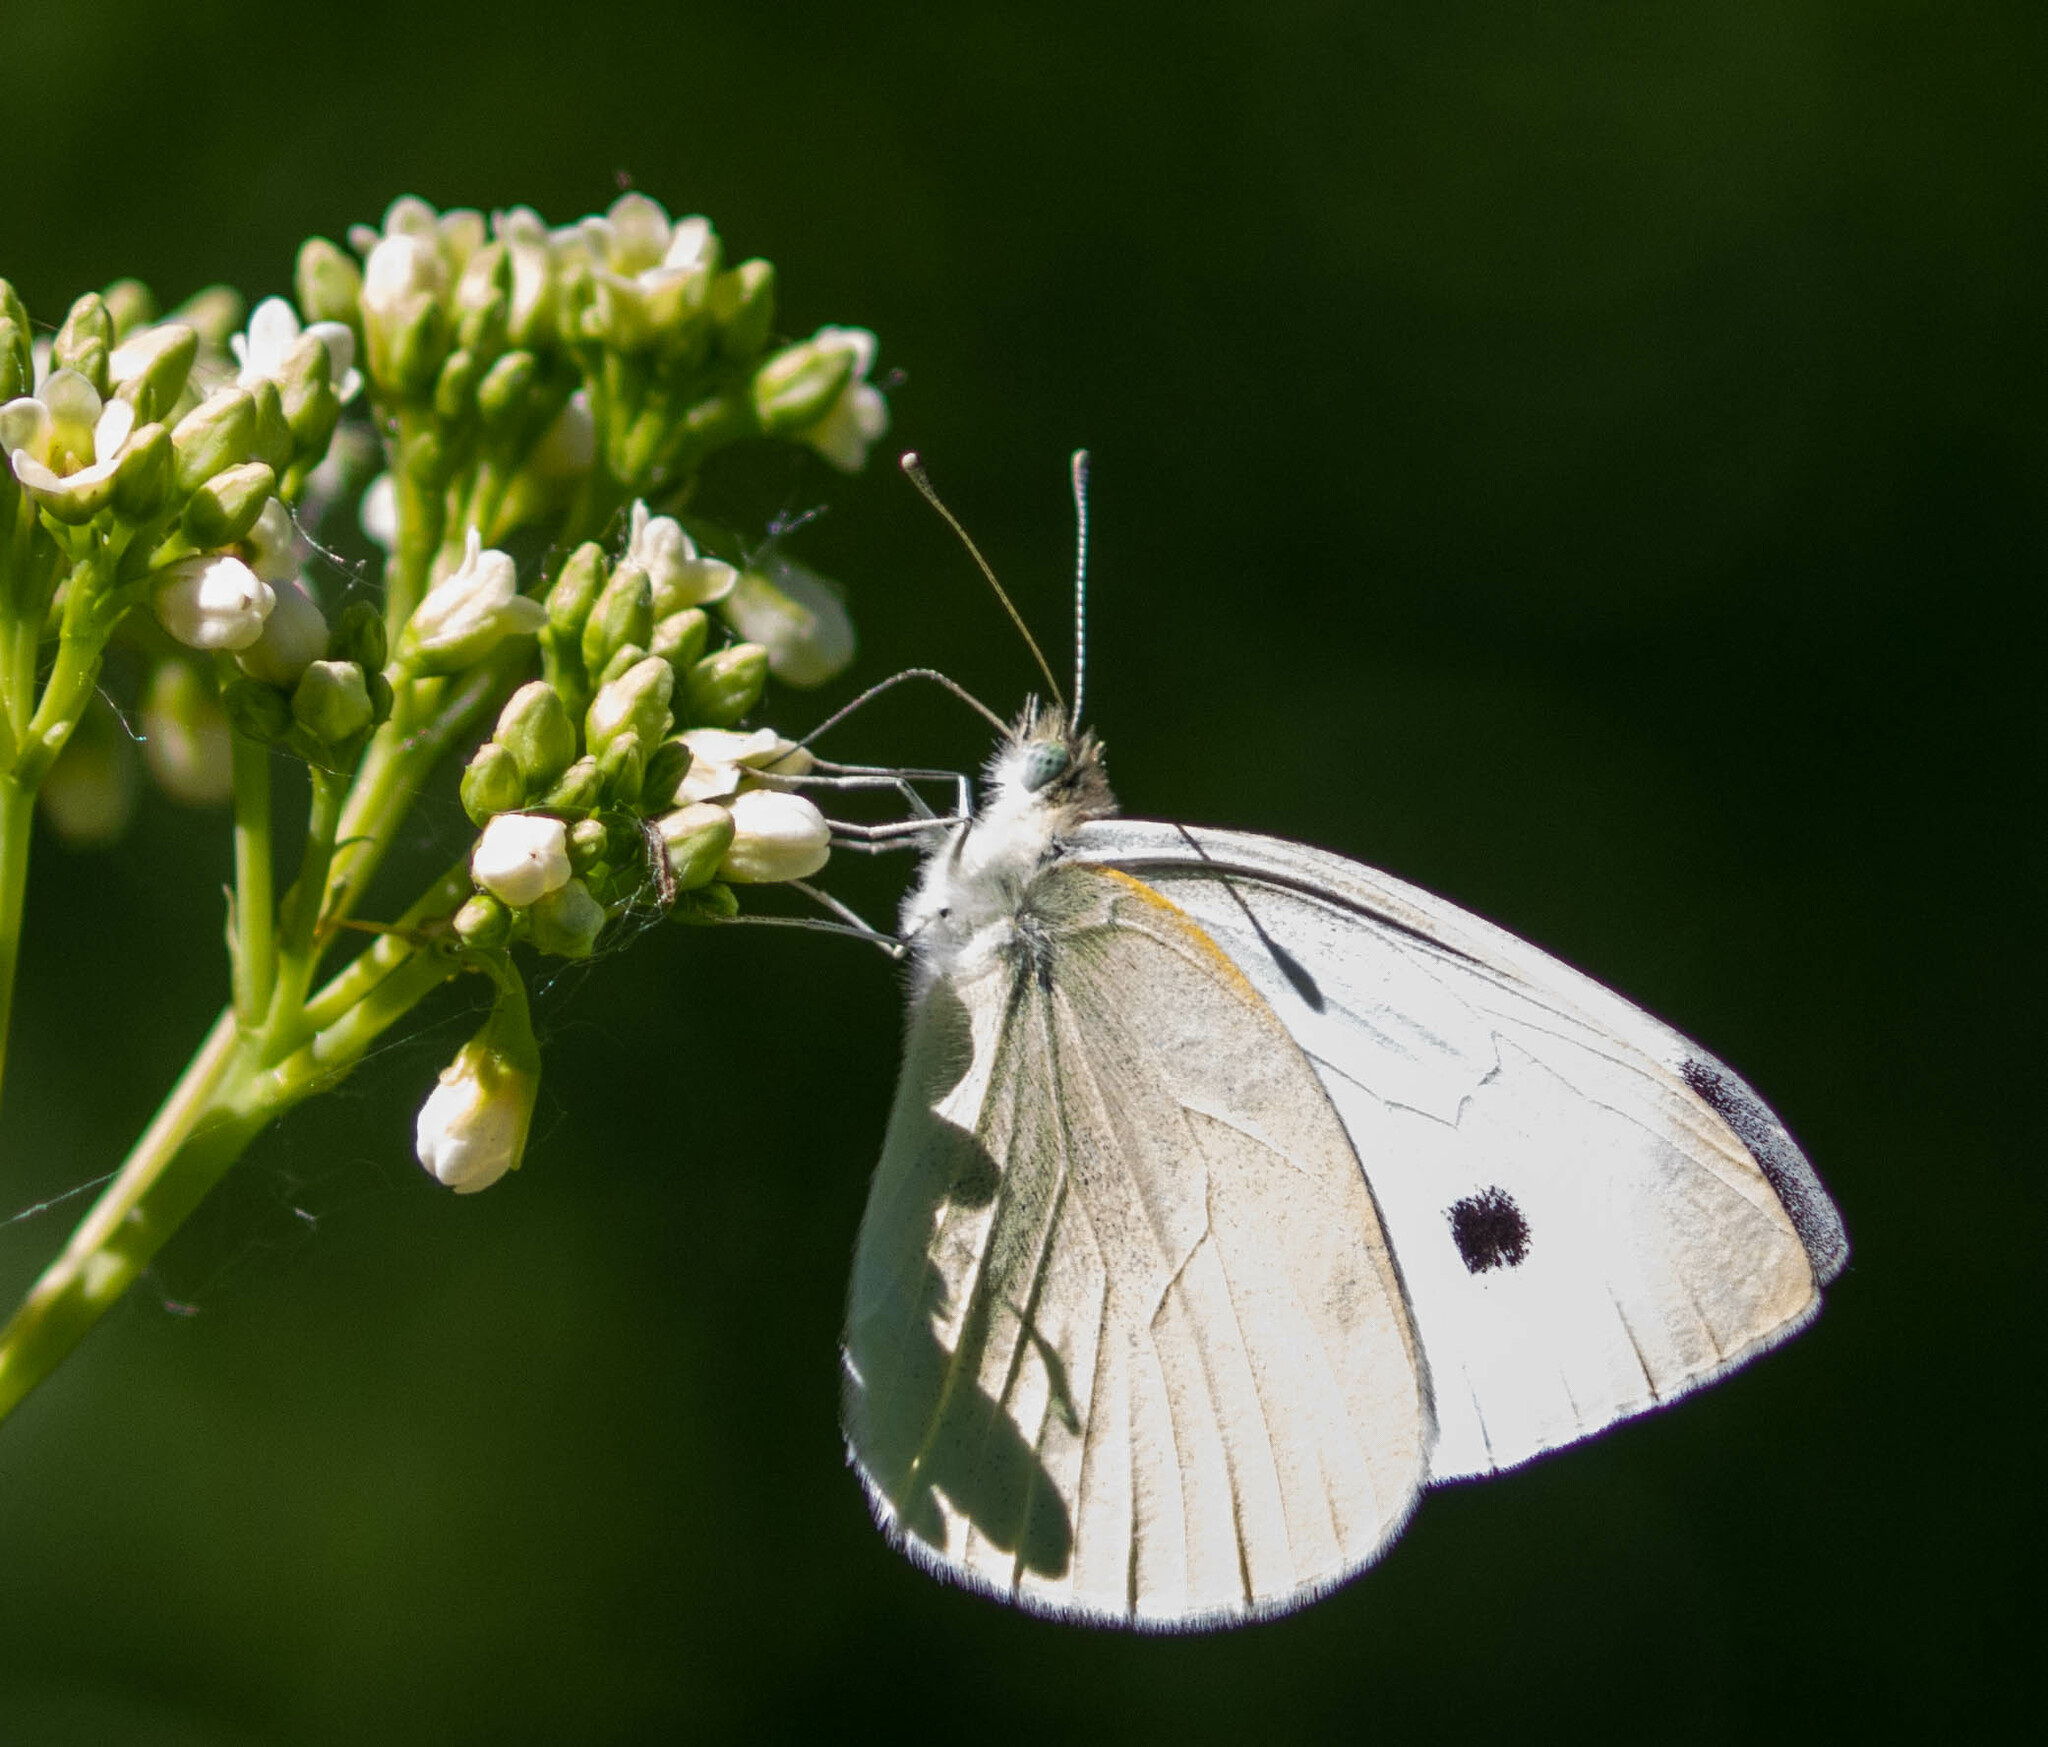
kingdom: Animalia
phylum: Arthropoda
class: Insecta
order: Lepidoptera
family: Pieridae
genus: Pieris
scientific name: Pieris rapae
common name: Small white
